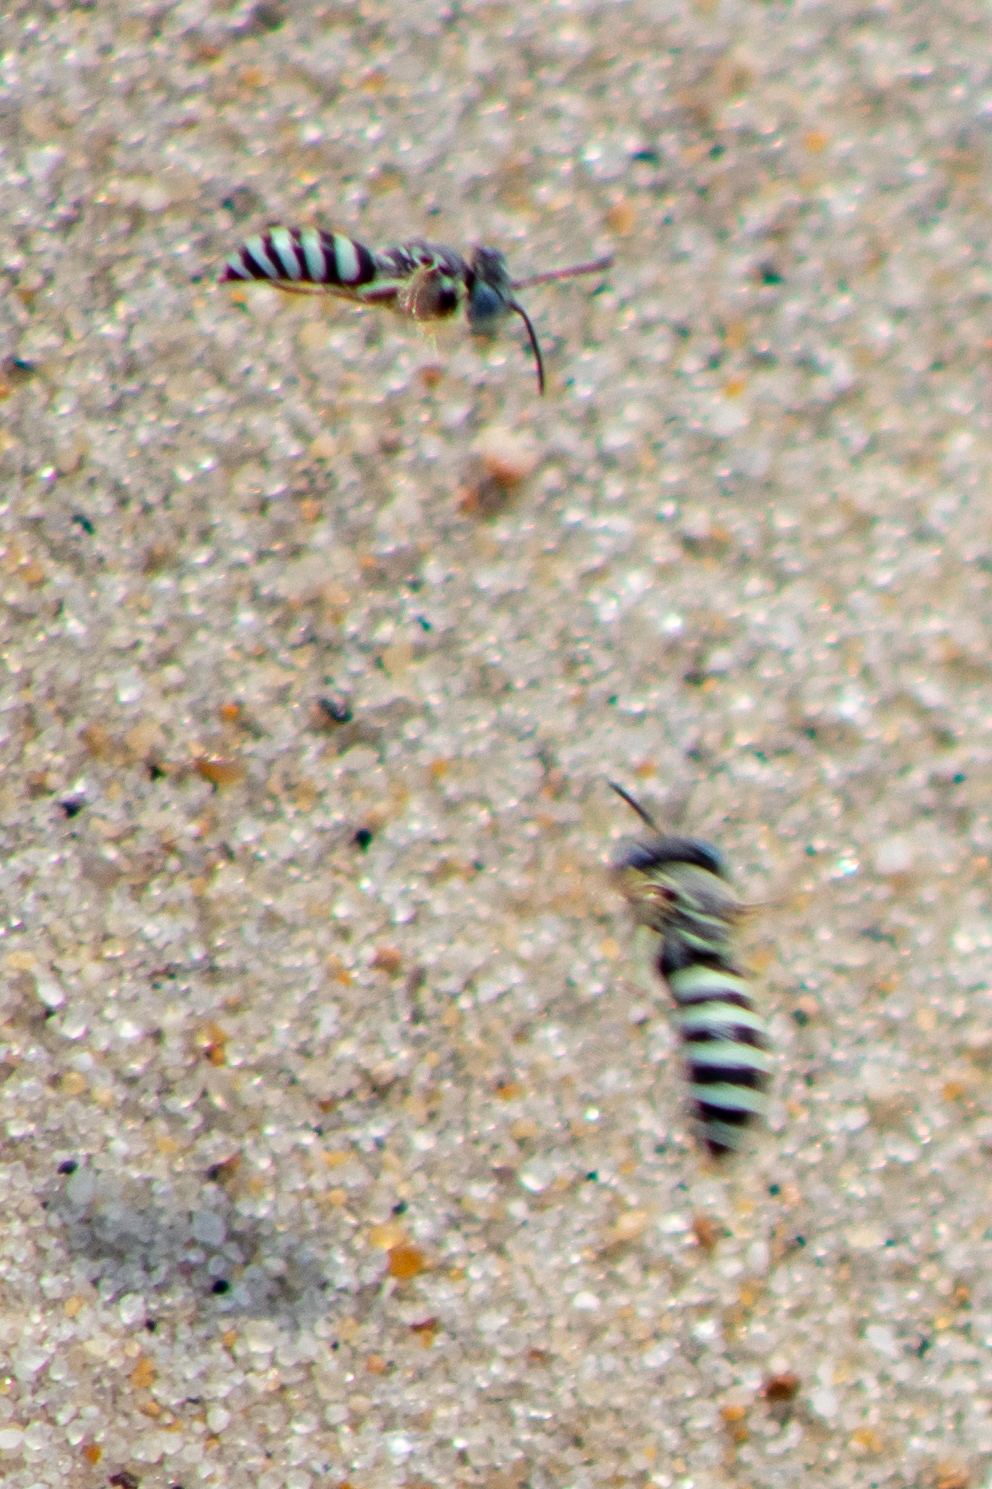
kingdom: Animalia
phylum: Arthropoda
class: Insecta
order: Hymenoptera
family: Crabronidae
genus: Microbembex
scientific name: Microbembex monodonta
